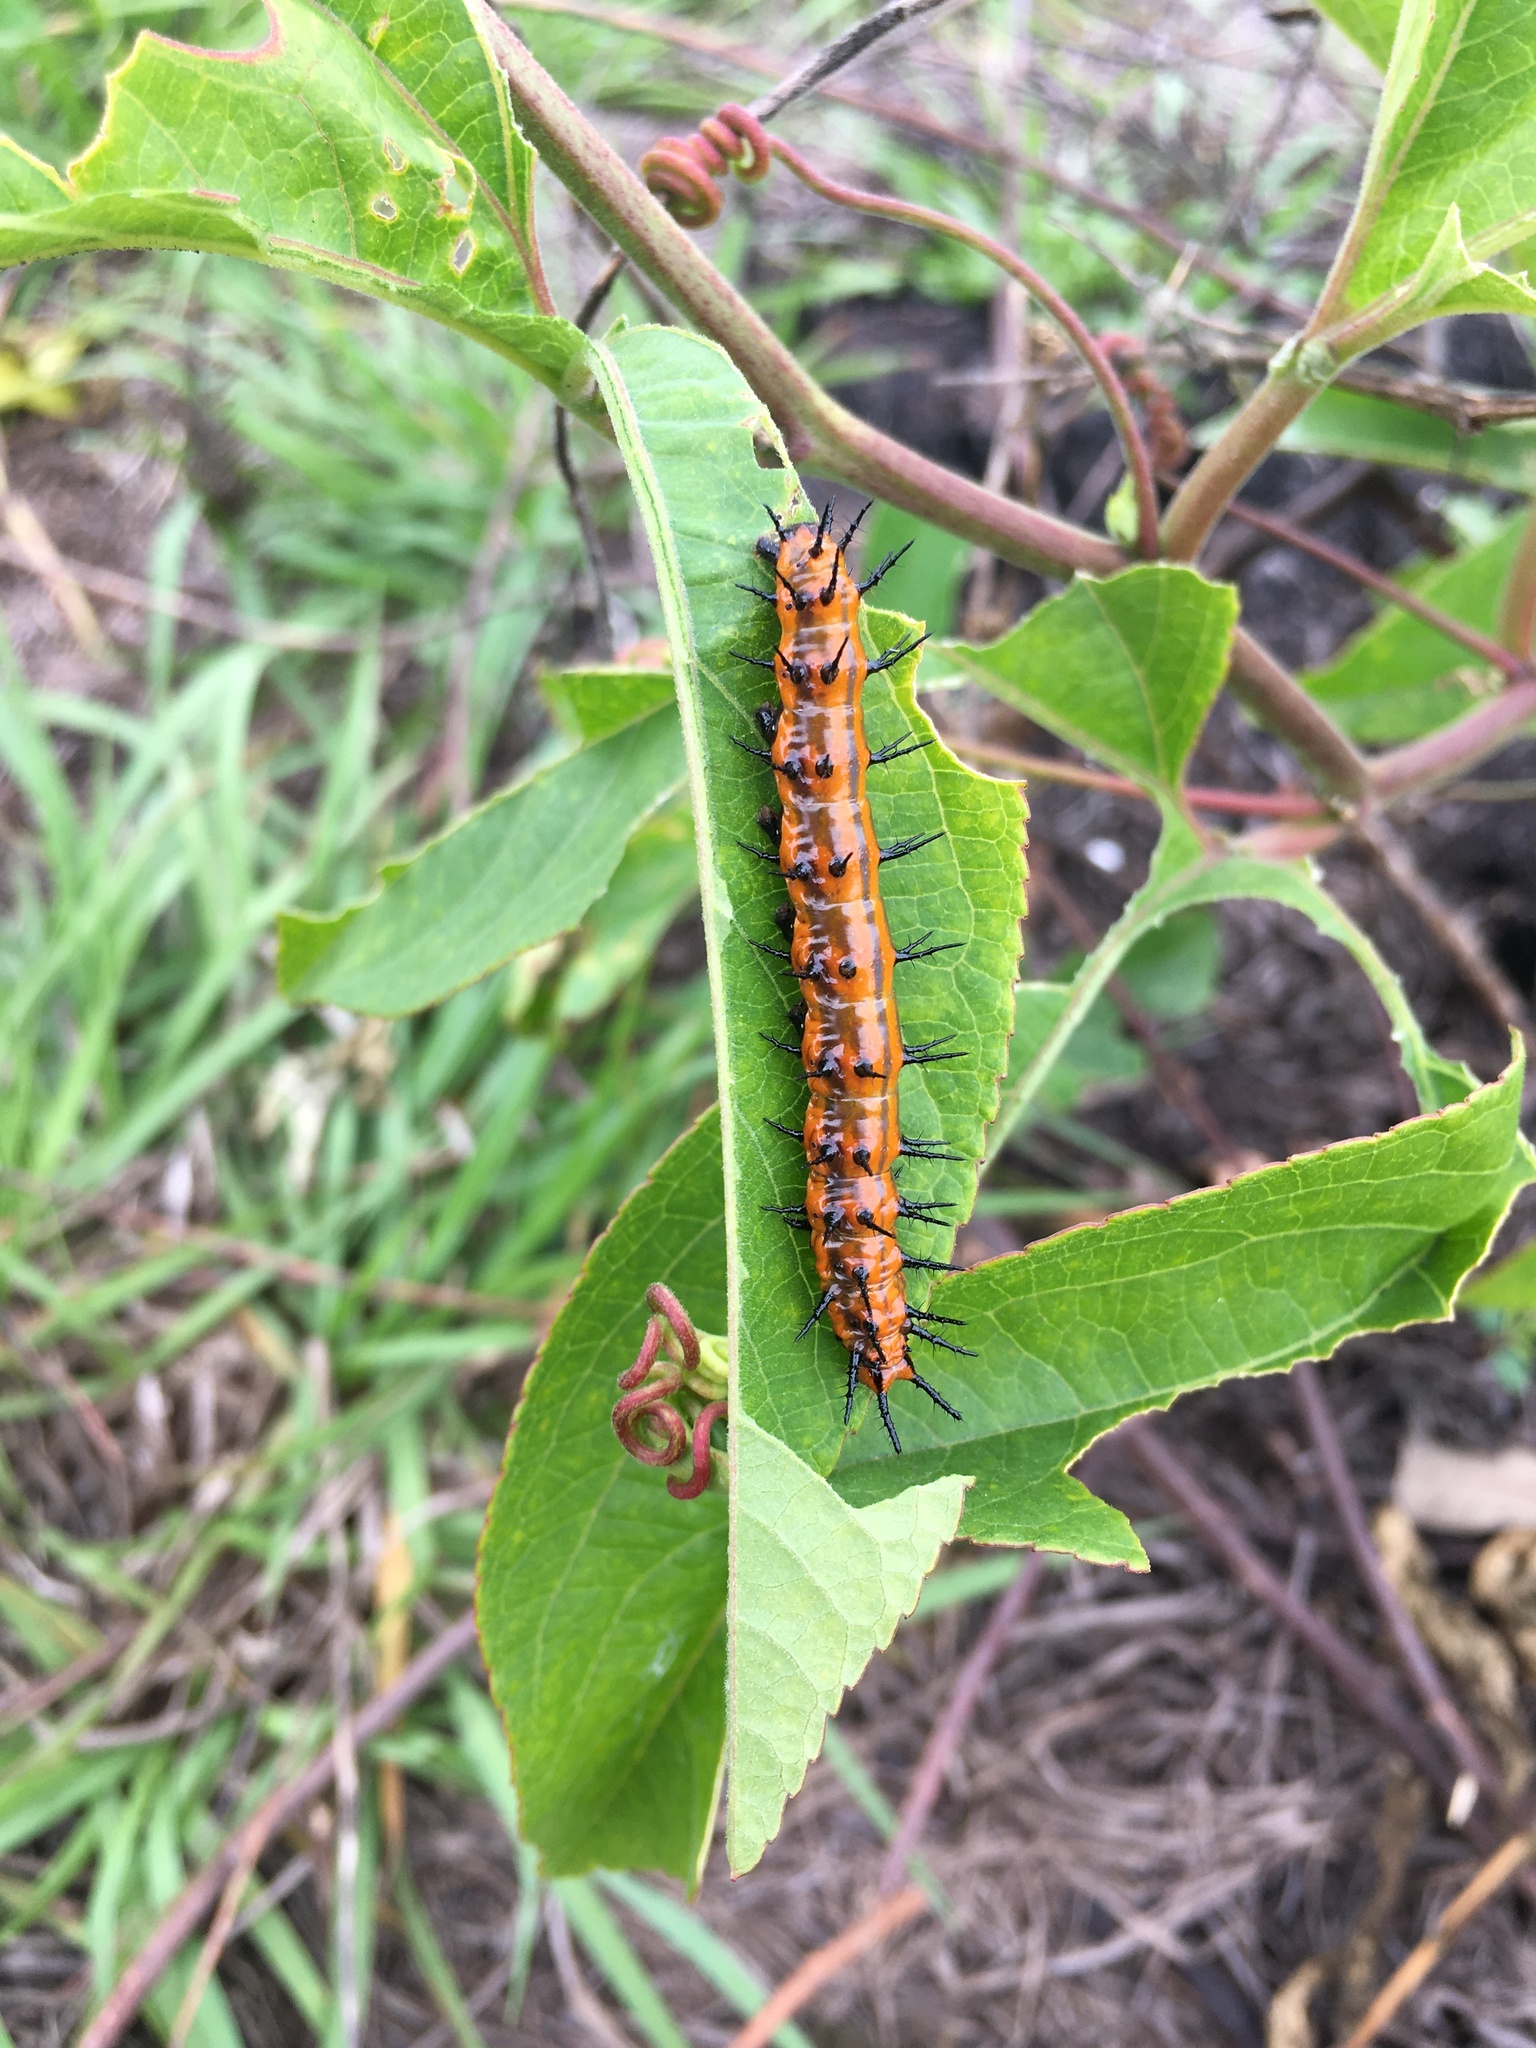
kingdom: Animalia
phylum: Arthropoda
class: Insecta
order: Lepidoptera
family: Nymphalidae
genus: Dione
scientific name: Dione vanillae
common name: Gulf fritillary
